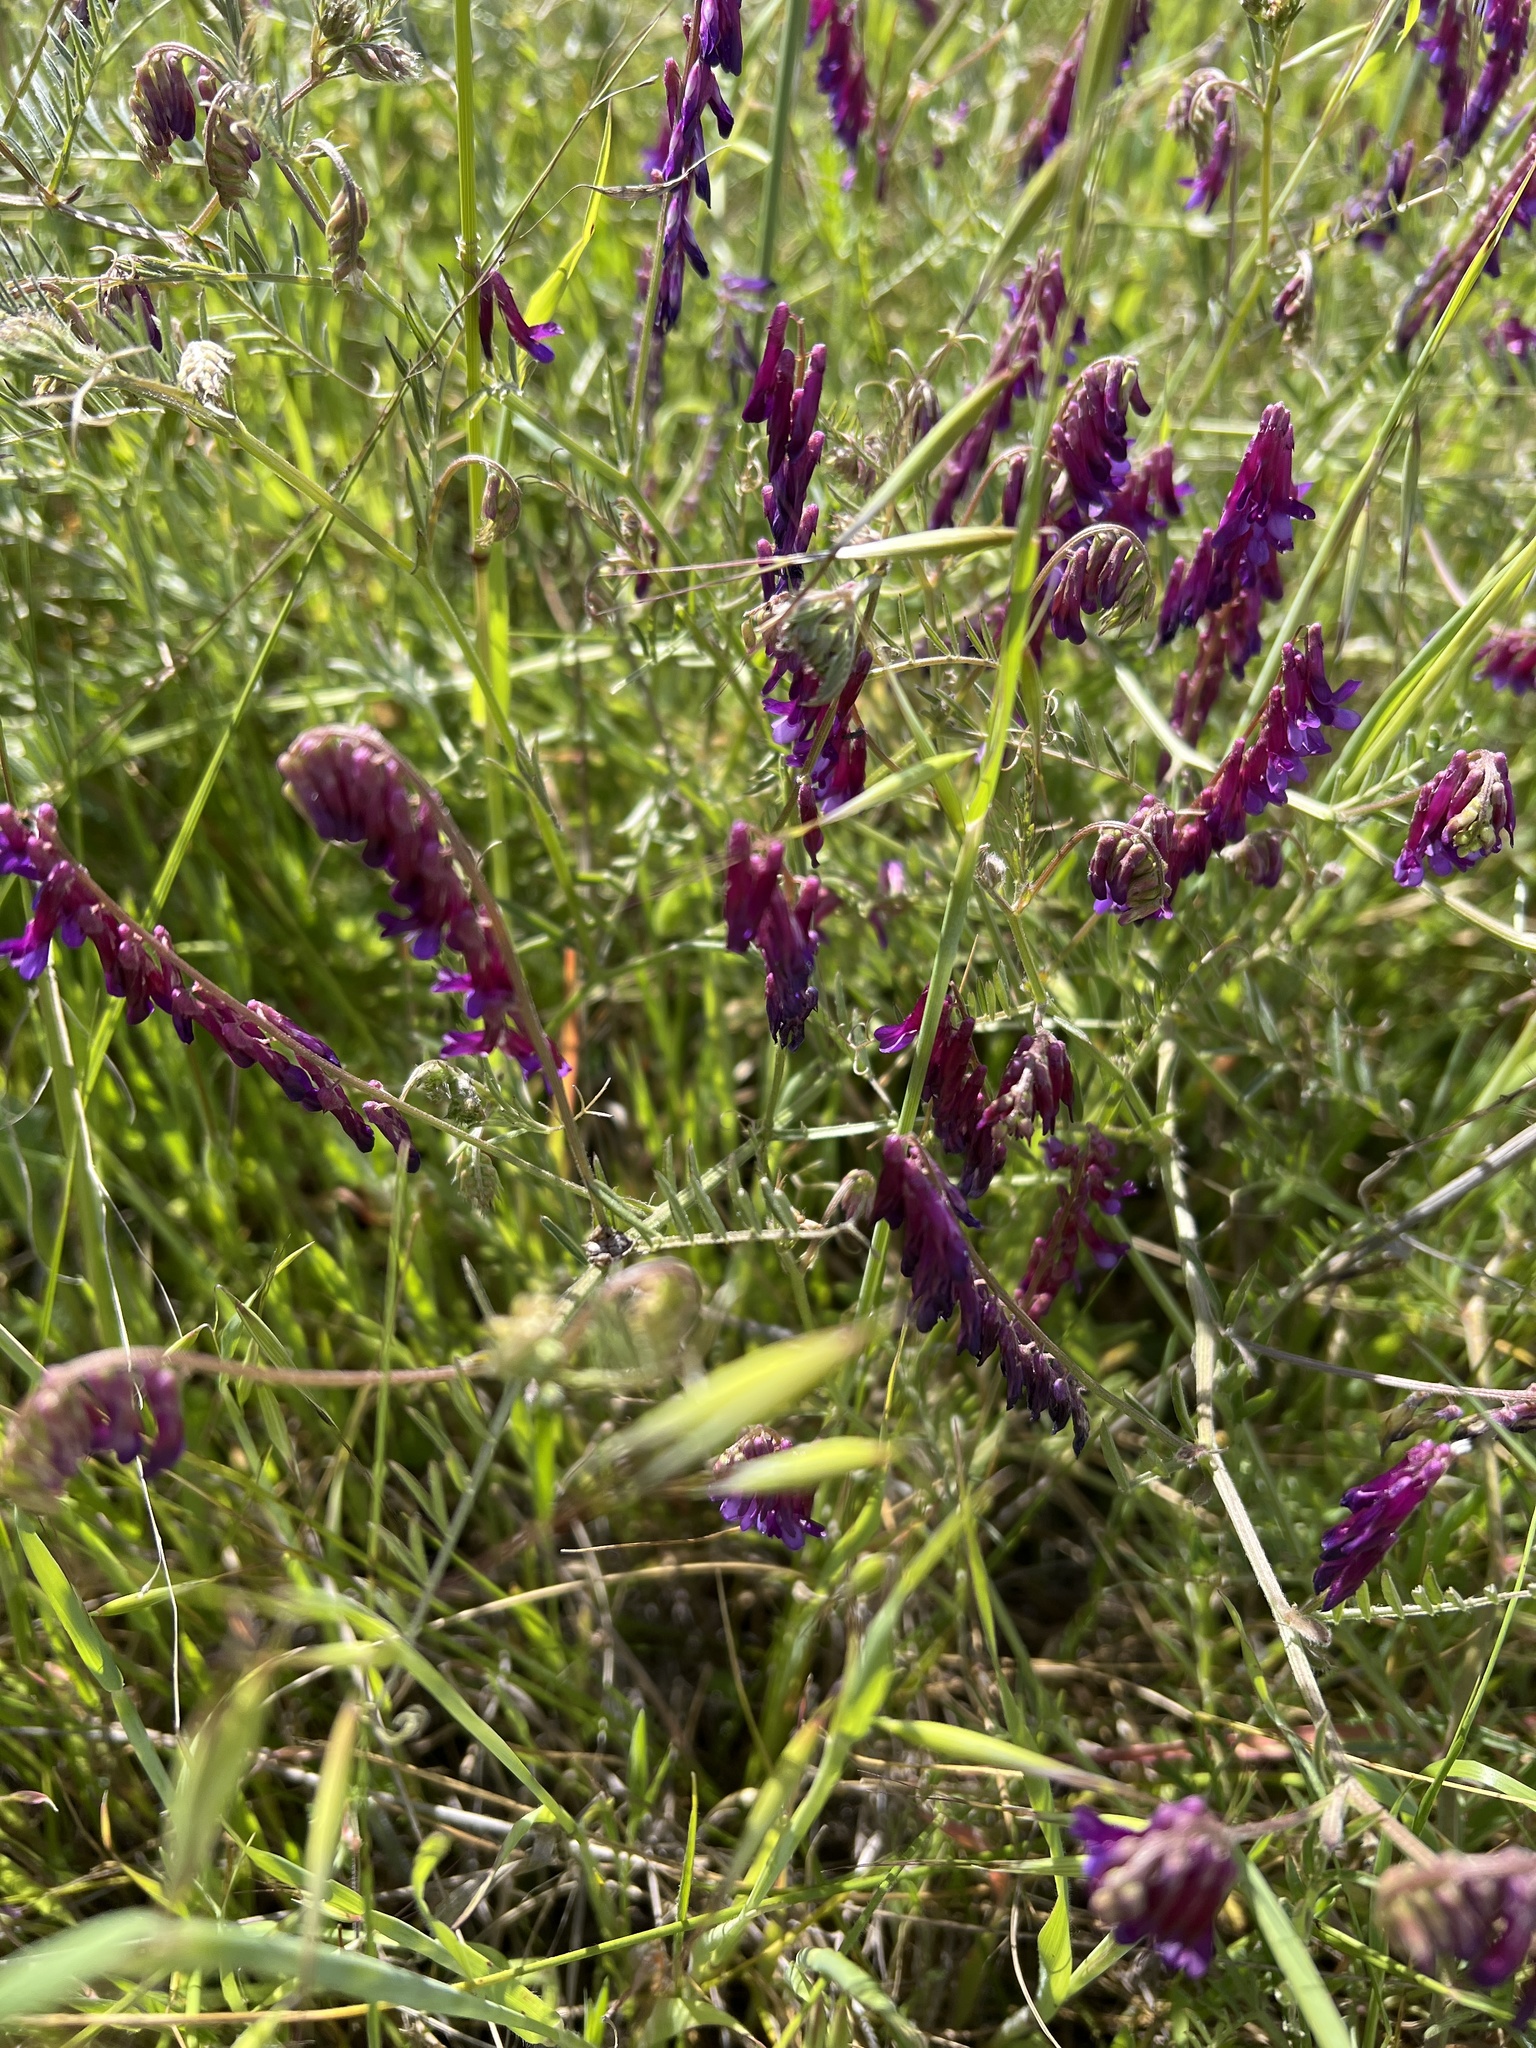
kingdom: Plantae
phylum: Tracheophyta
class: Magnoliopsida
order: Fabales
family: Fabaceae
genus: Vicia
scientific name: Vicia villosa
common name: Fodder vetch
